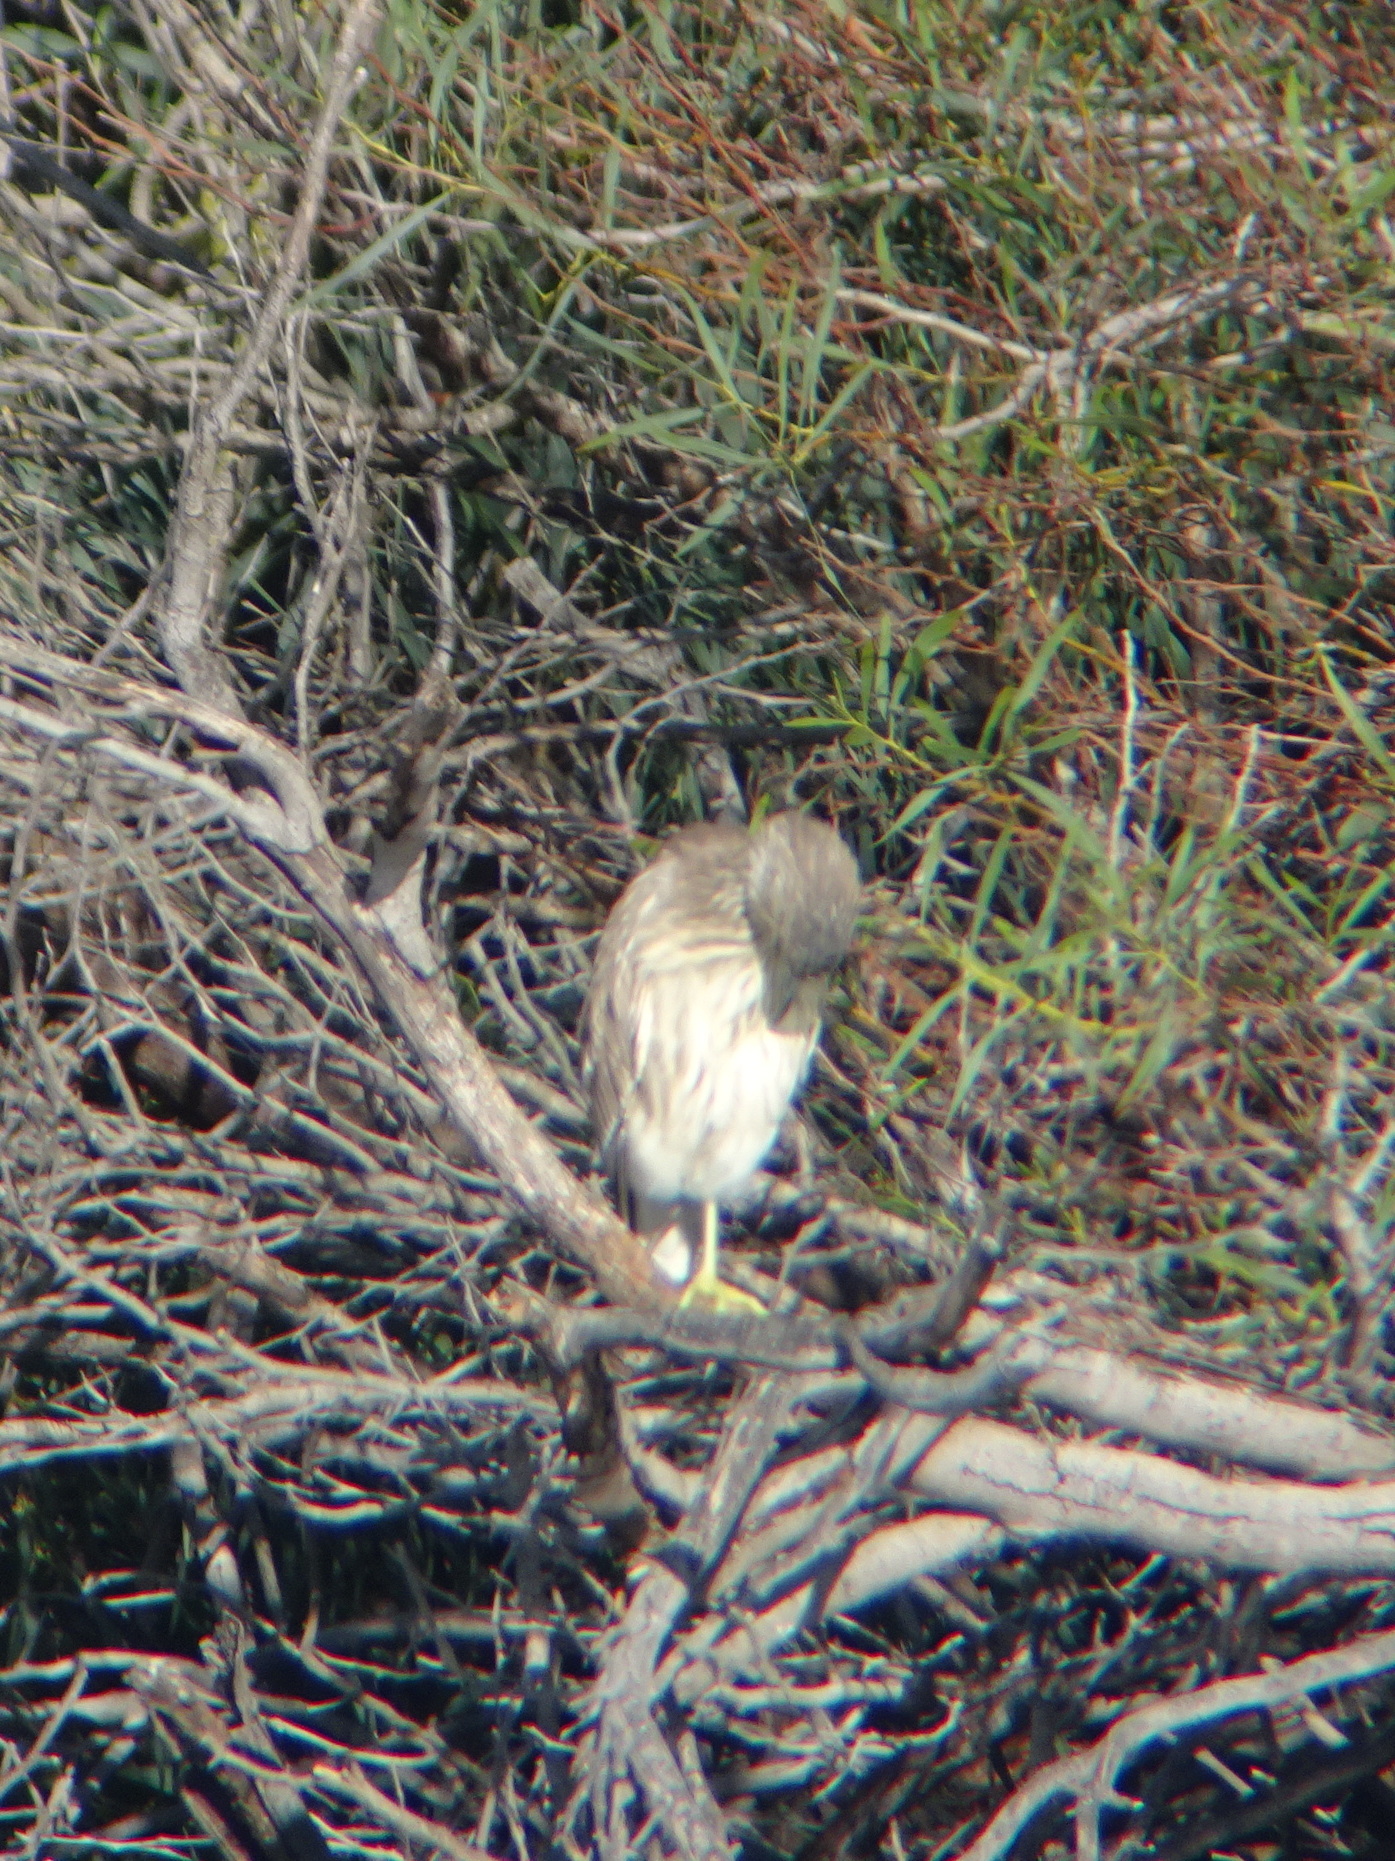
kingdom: Animalia
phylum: Chordata
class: Aves
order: Pelecaniformes
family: Ardeidae
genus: Nycticorax
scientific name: Nycticorax nycticorax
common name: Black-crowned night heron
